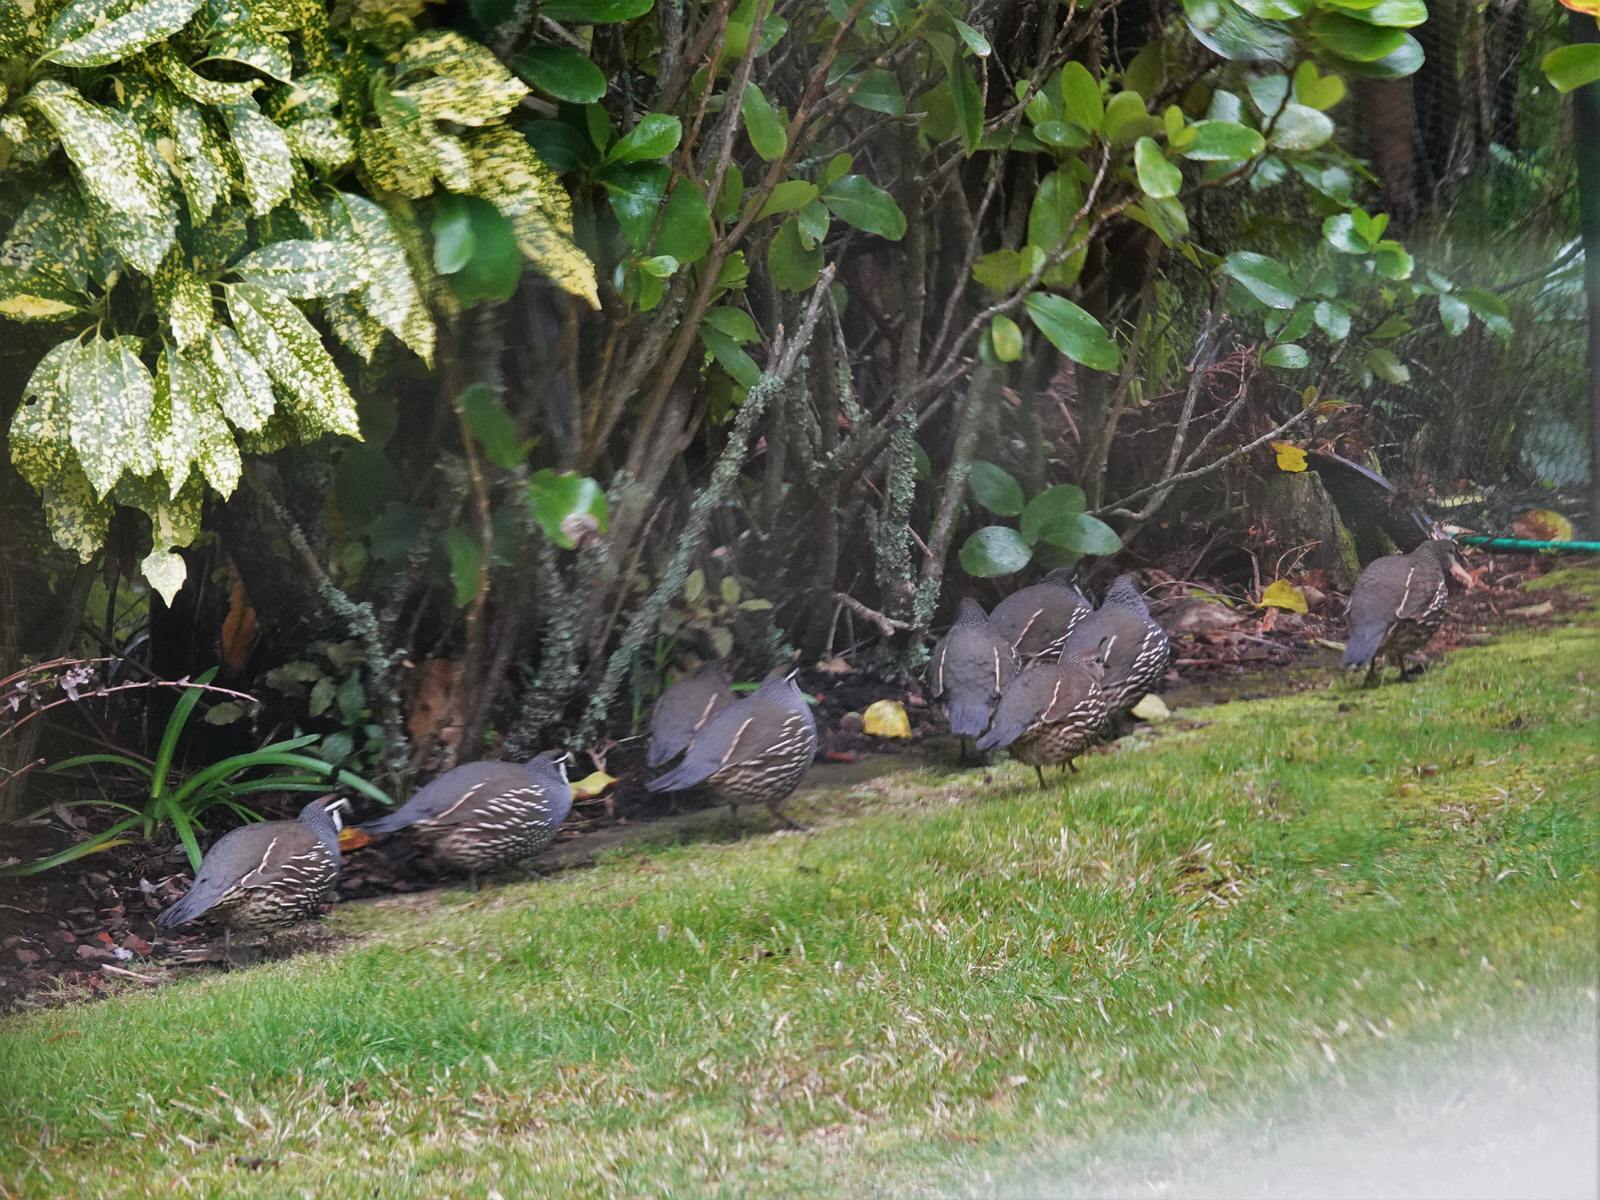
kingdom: Animalia
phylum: Chordata
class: Aves
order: Galliformes
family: Odontophoridae
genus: Callipepla
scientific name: Callipepla californica
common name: California quail
